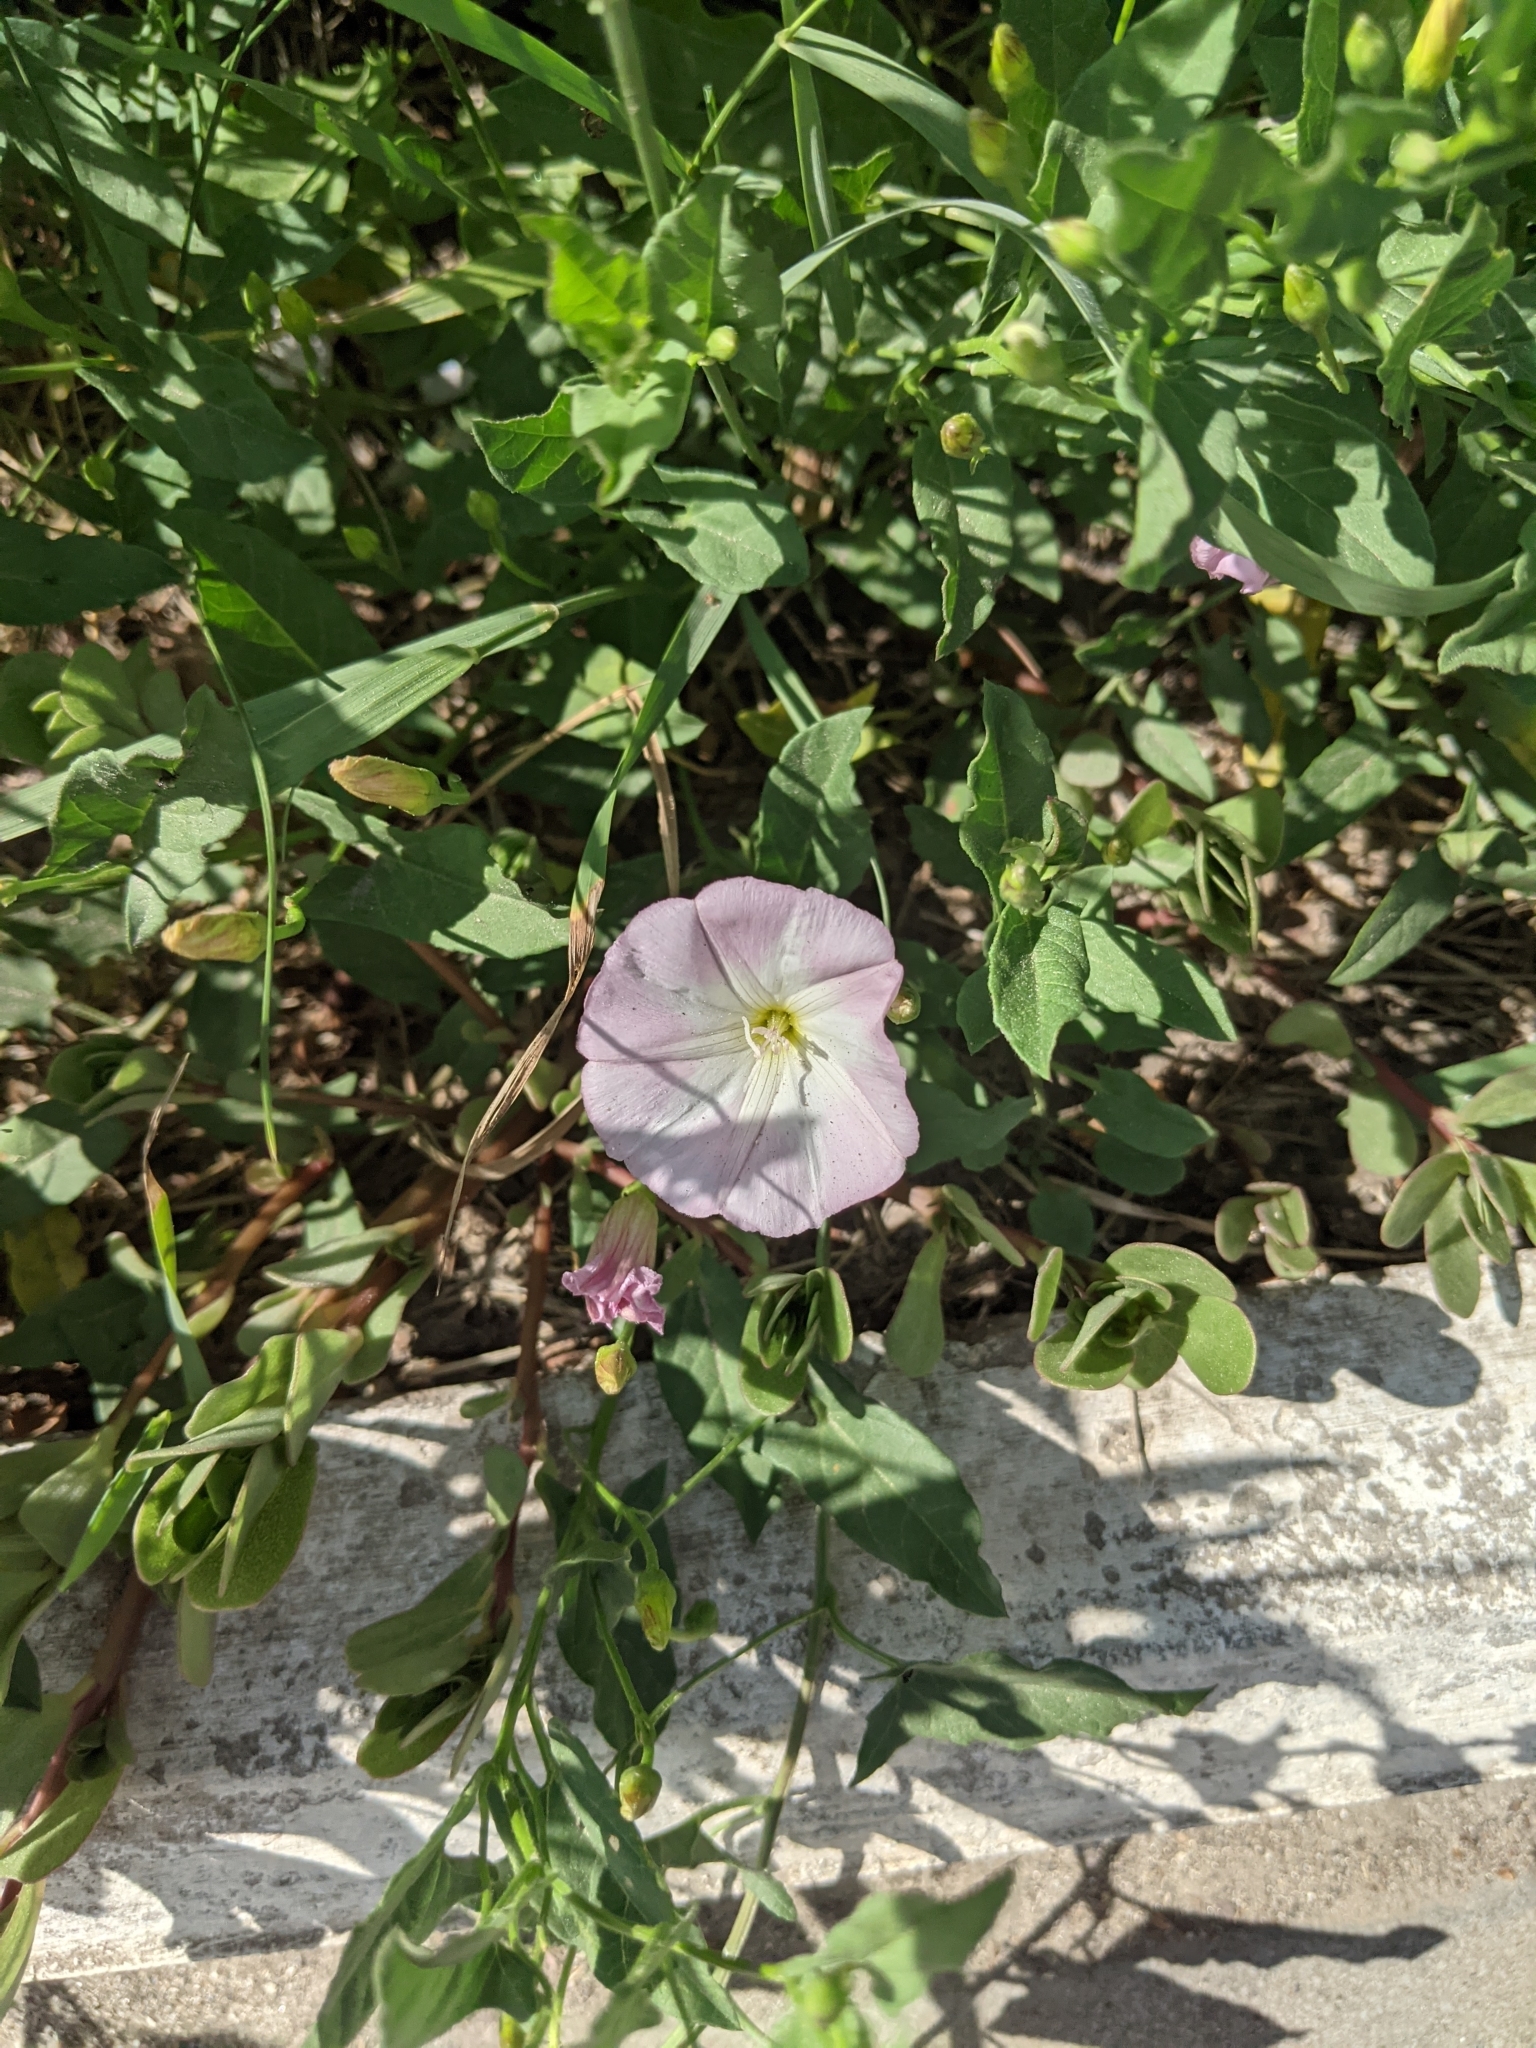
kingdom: Plantae
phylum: Tracheophyta
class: Magnoliopsida
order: Solanales
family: Convolvulaceae
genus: Convolvulus
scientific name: Convolvulus arvensis
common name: Field bindweed
